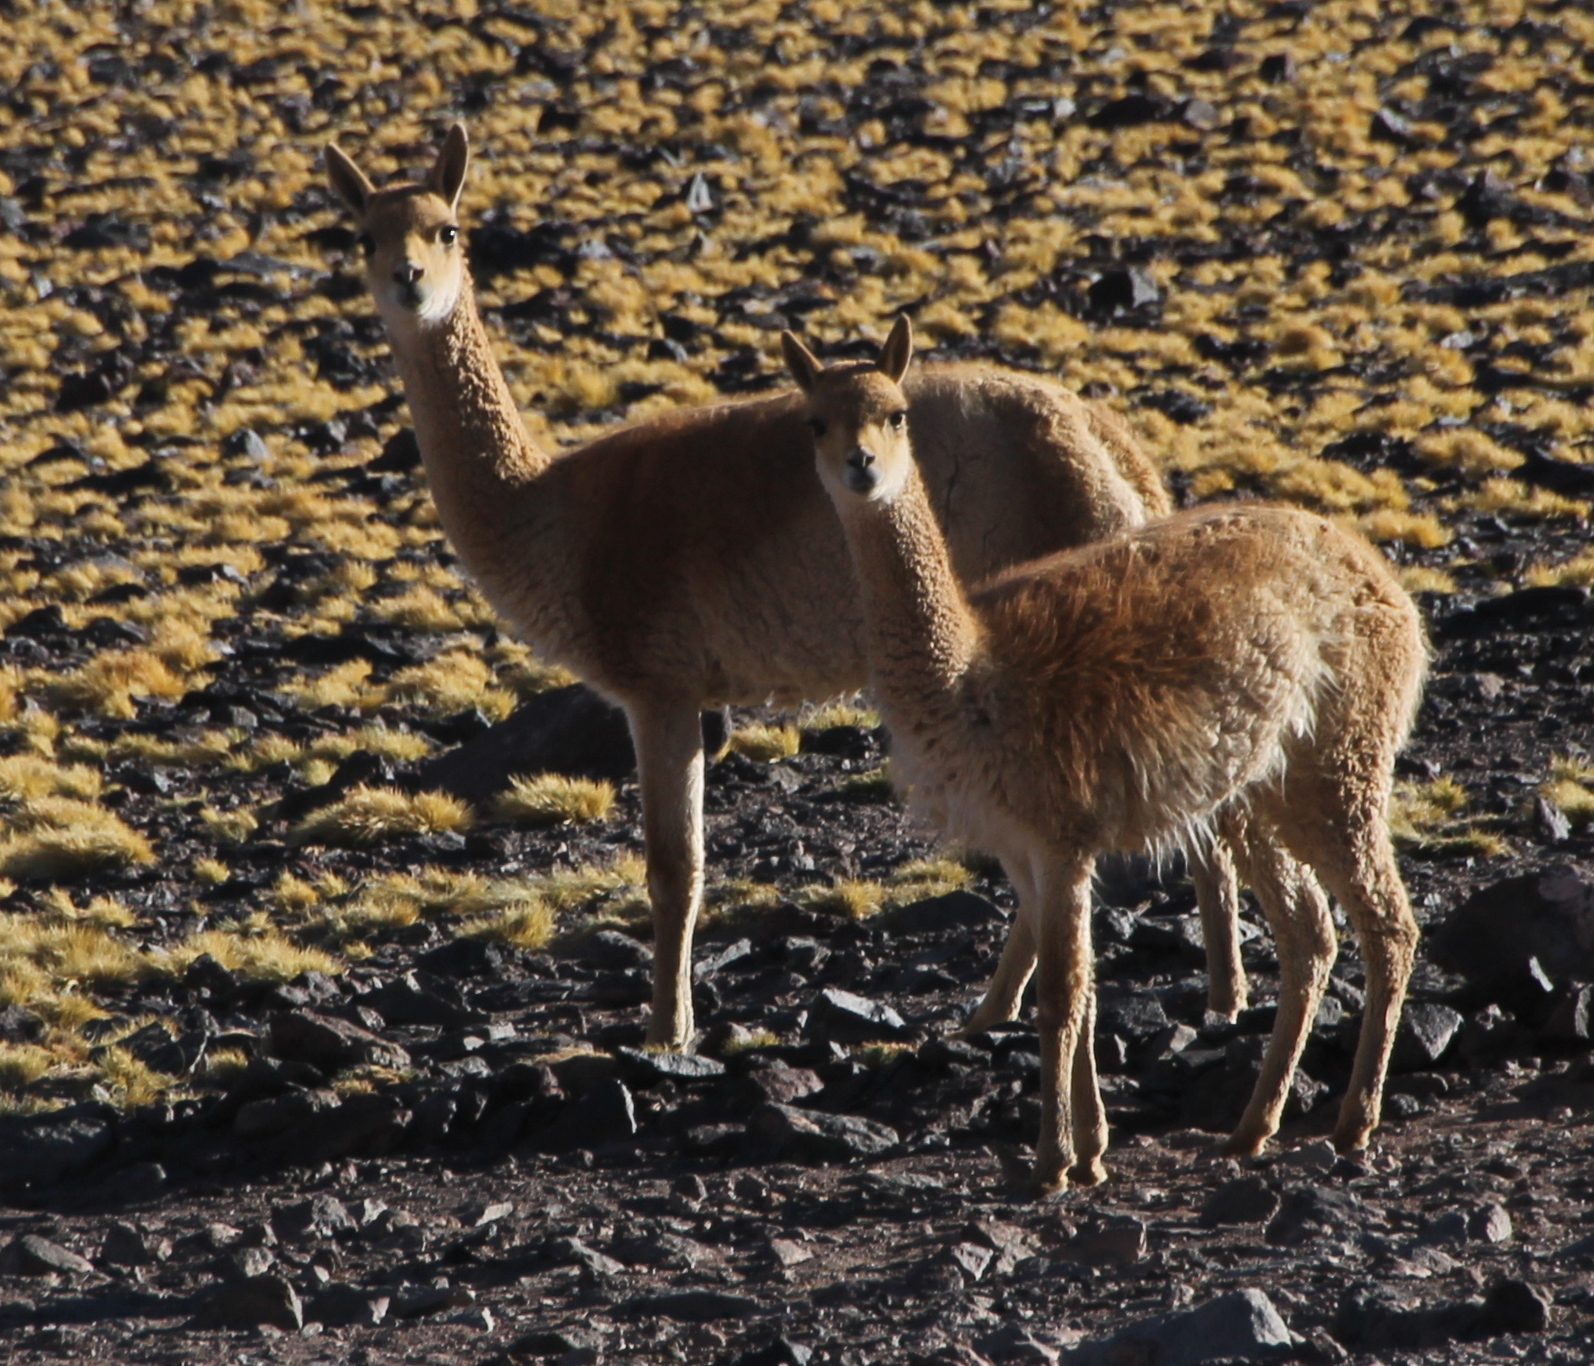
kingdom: Animalia
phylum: Chordata
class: Mammalia
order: Artiodactyla
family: Camelidae
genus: Vicugna
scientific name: Vicugna vicugna
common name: Vicugna
